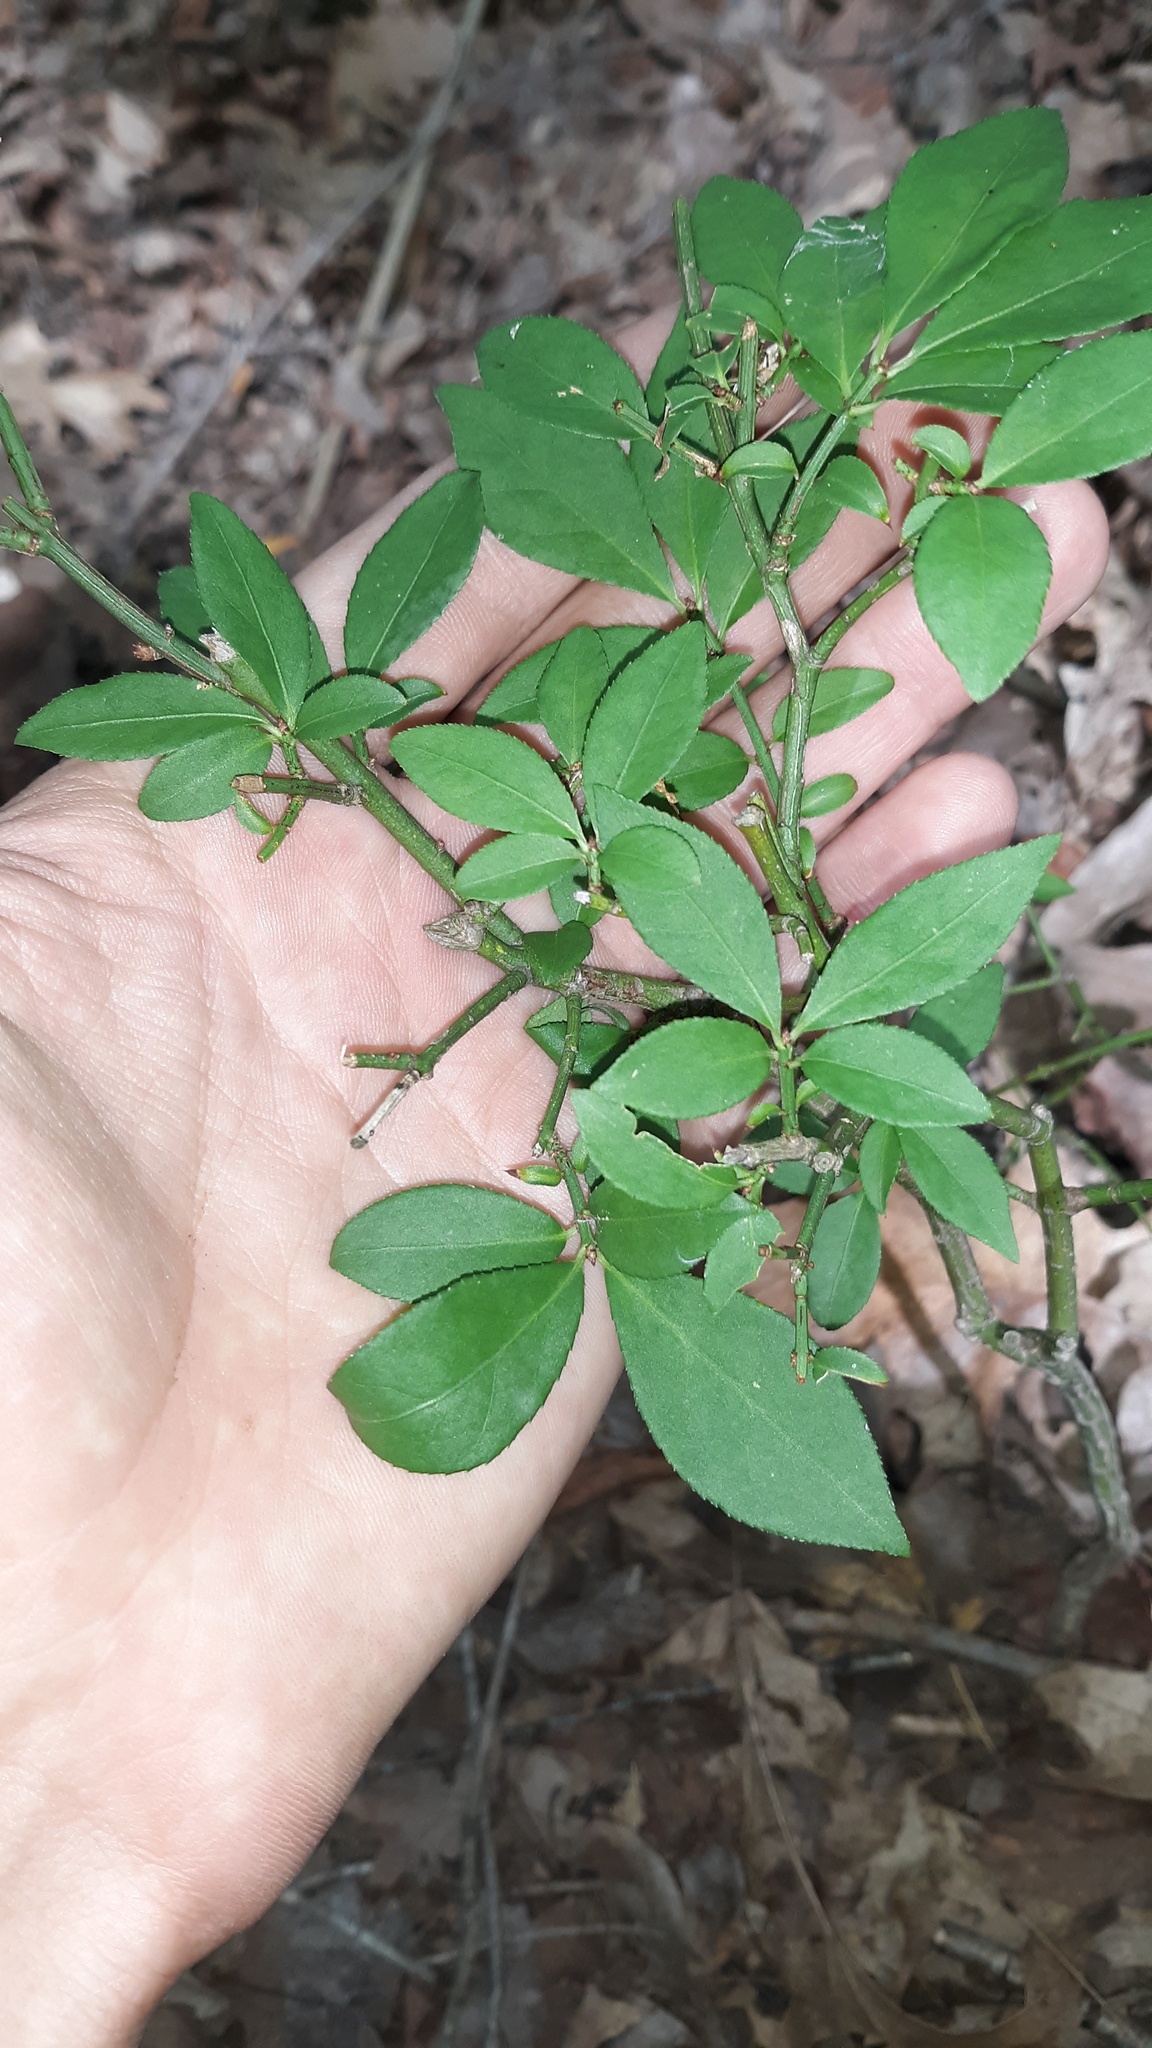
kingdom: Plantae
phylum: Tracheophyta
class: Magnoliopsida
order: Celastrales
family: Celastraceae
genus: Euonymus
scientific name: Euonymus alatus
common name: Winged euonymus
